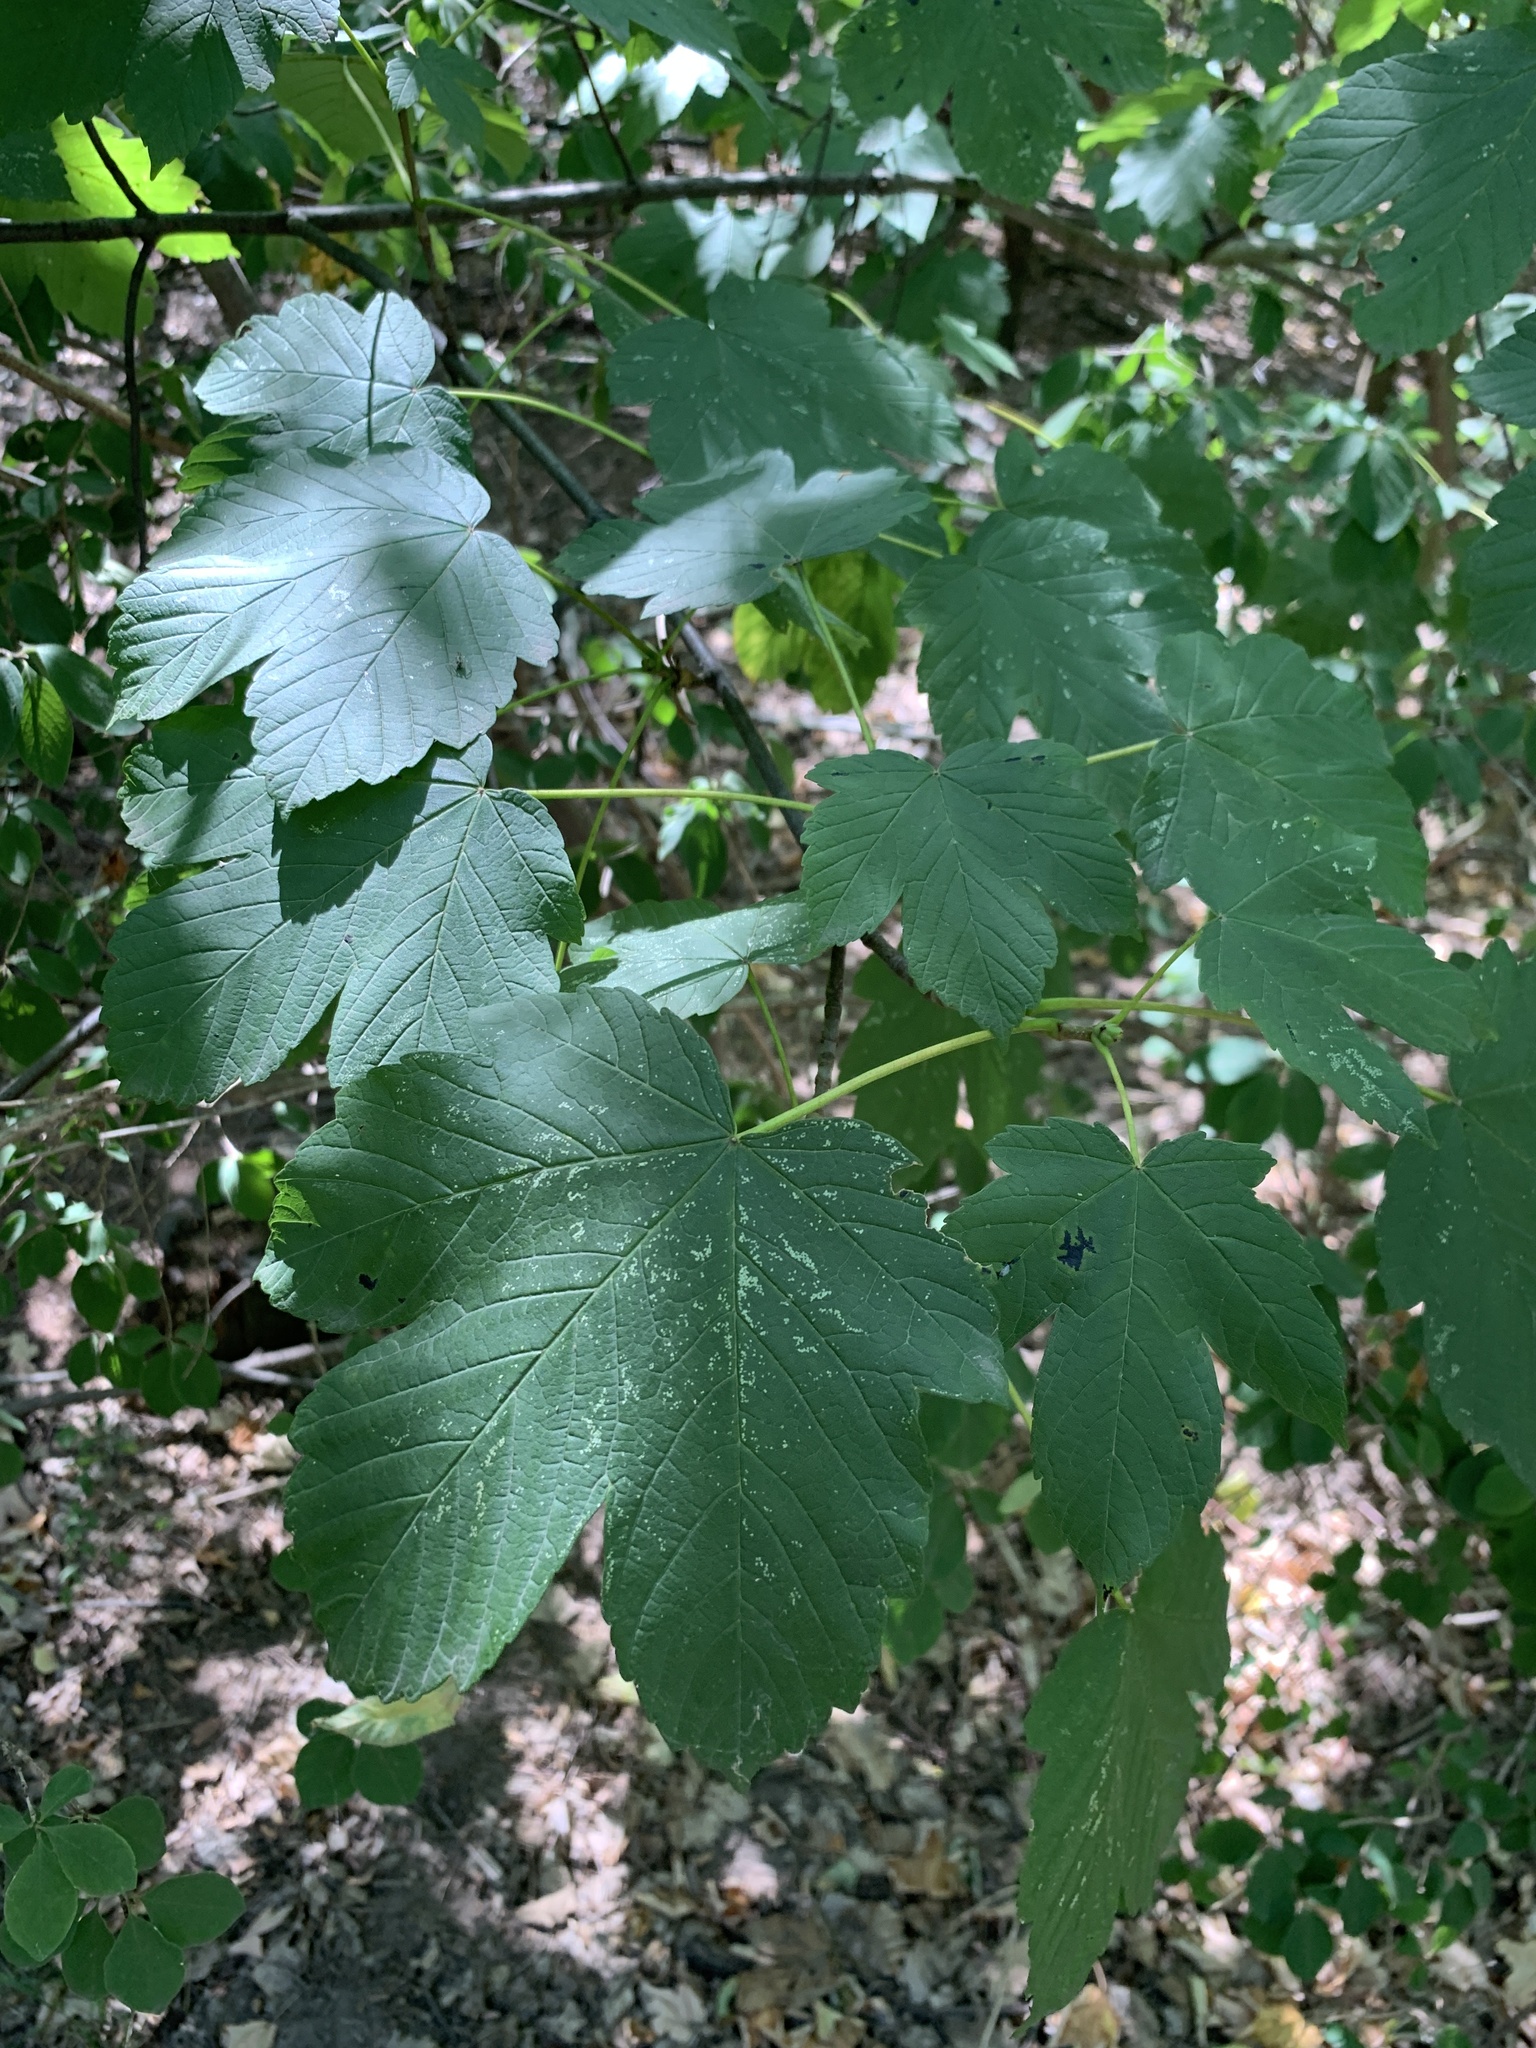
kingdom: Plantae
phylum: Tracheophyta
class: Magnoliopsida
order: Sapindales
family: Sapindaceae
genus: Acer
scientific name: Acer pseudoplatanus
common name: Sycamore
